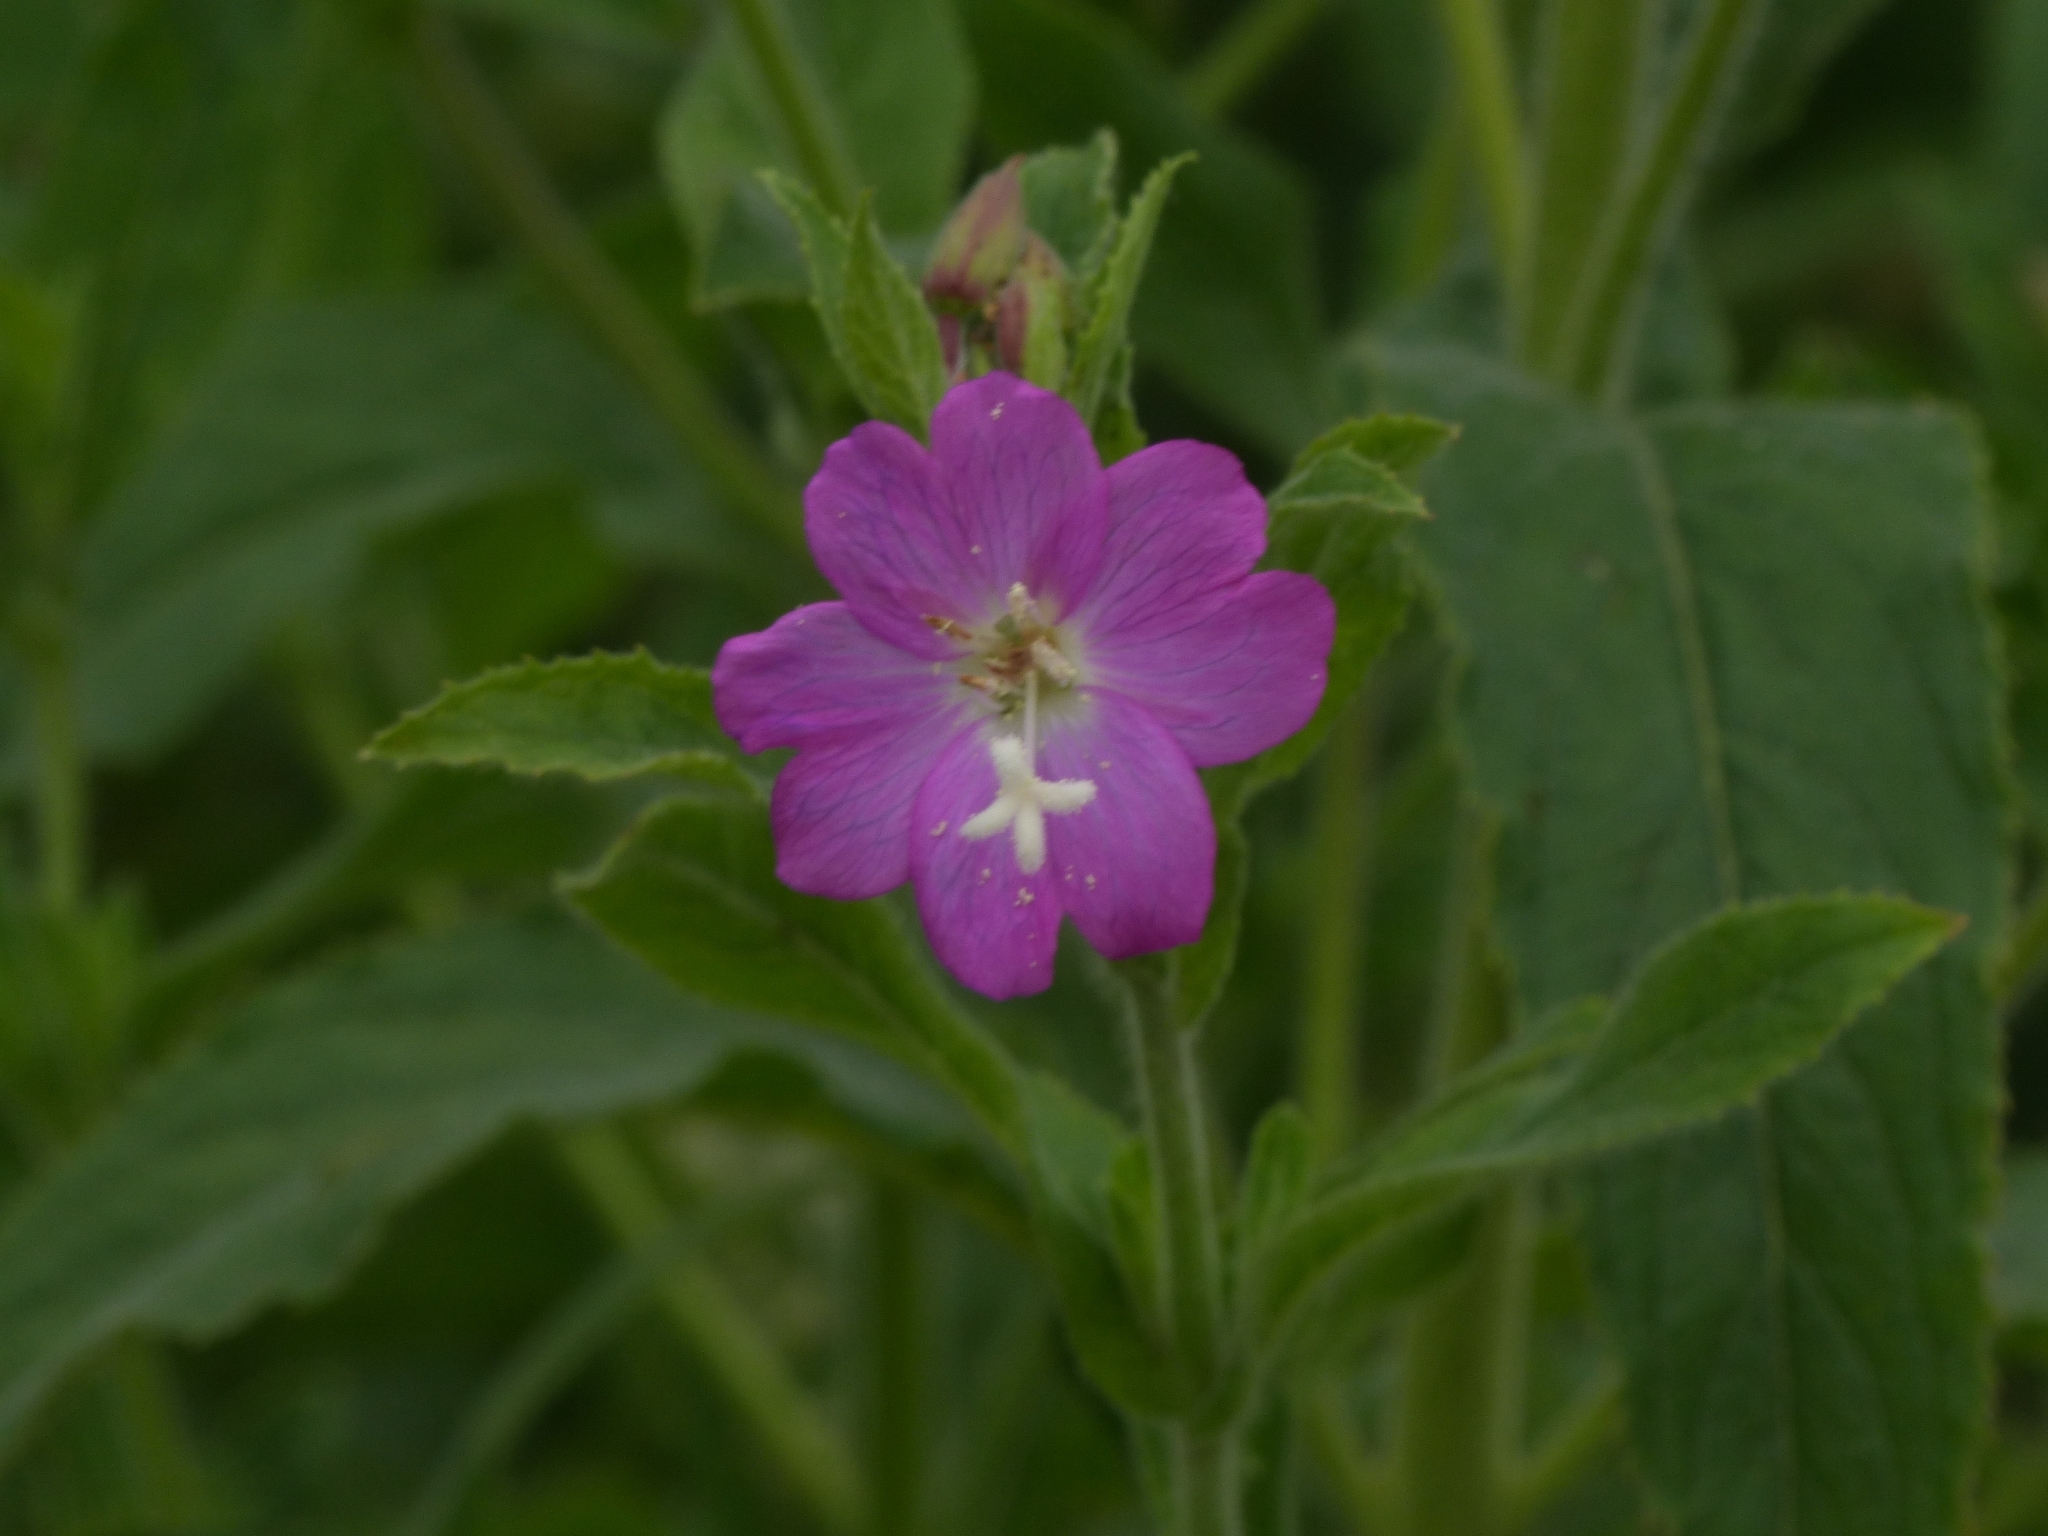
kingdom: Plantae
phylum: Tracheophyta
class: Magnoliopsida
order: Myrtales
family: Onagraceae
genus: Epilobium
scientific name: Epilobium hirsutum
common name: Great willowherb
